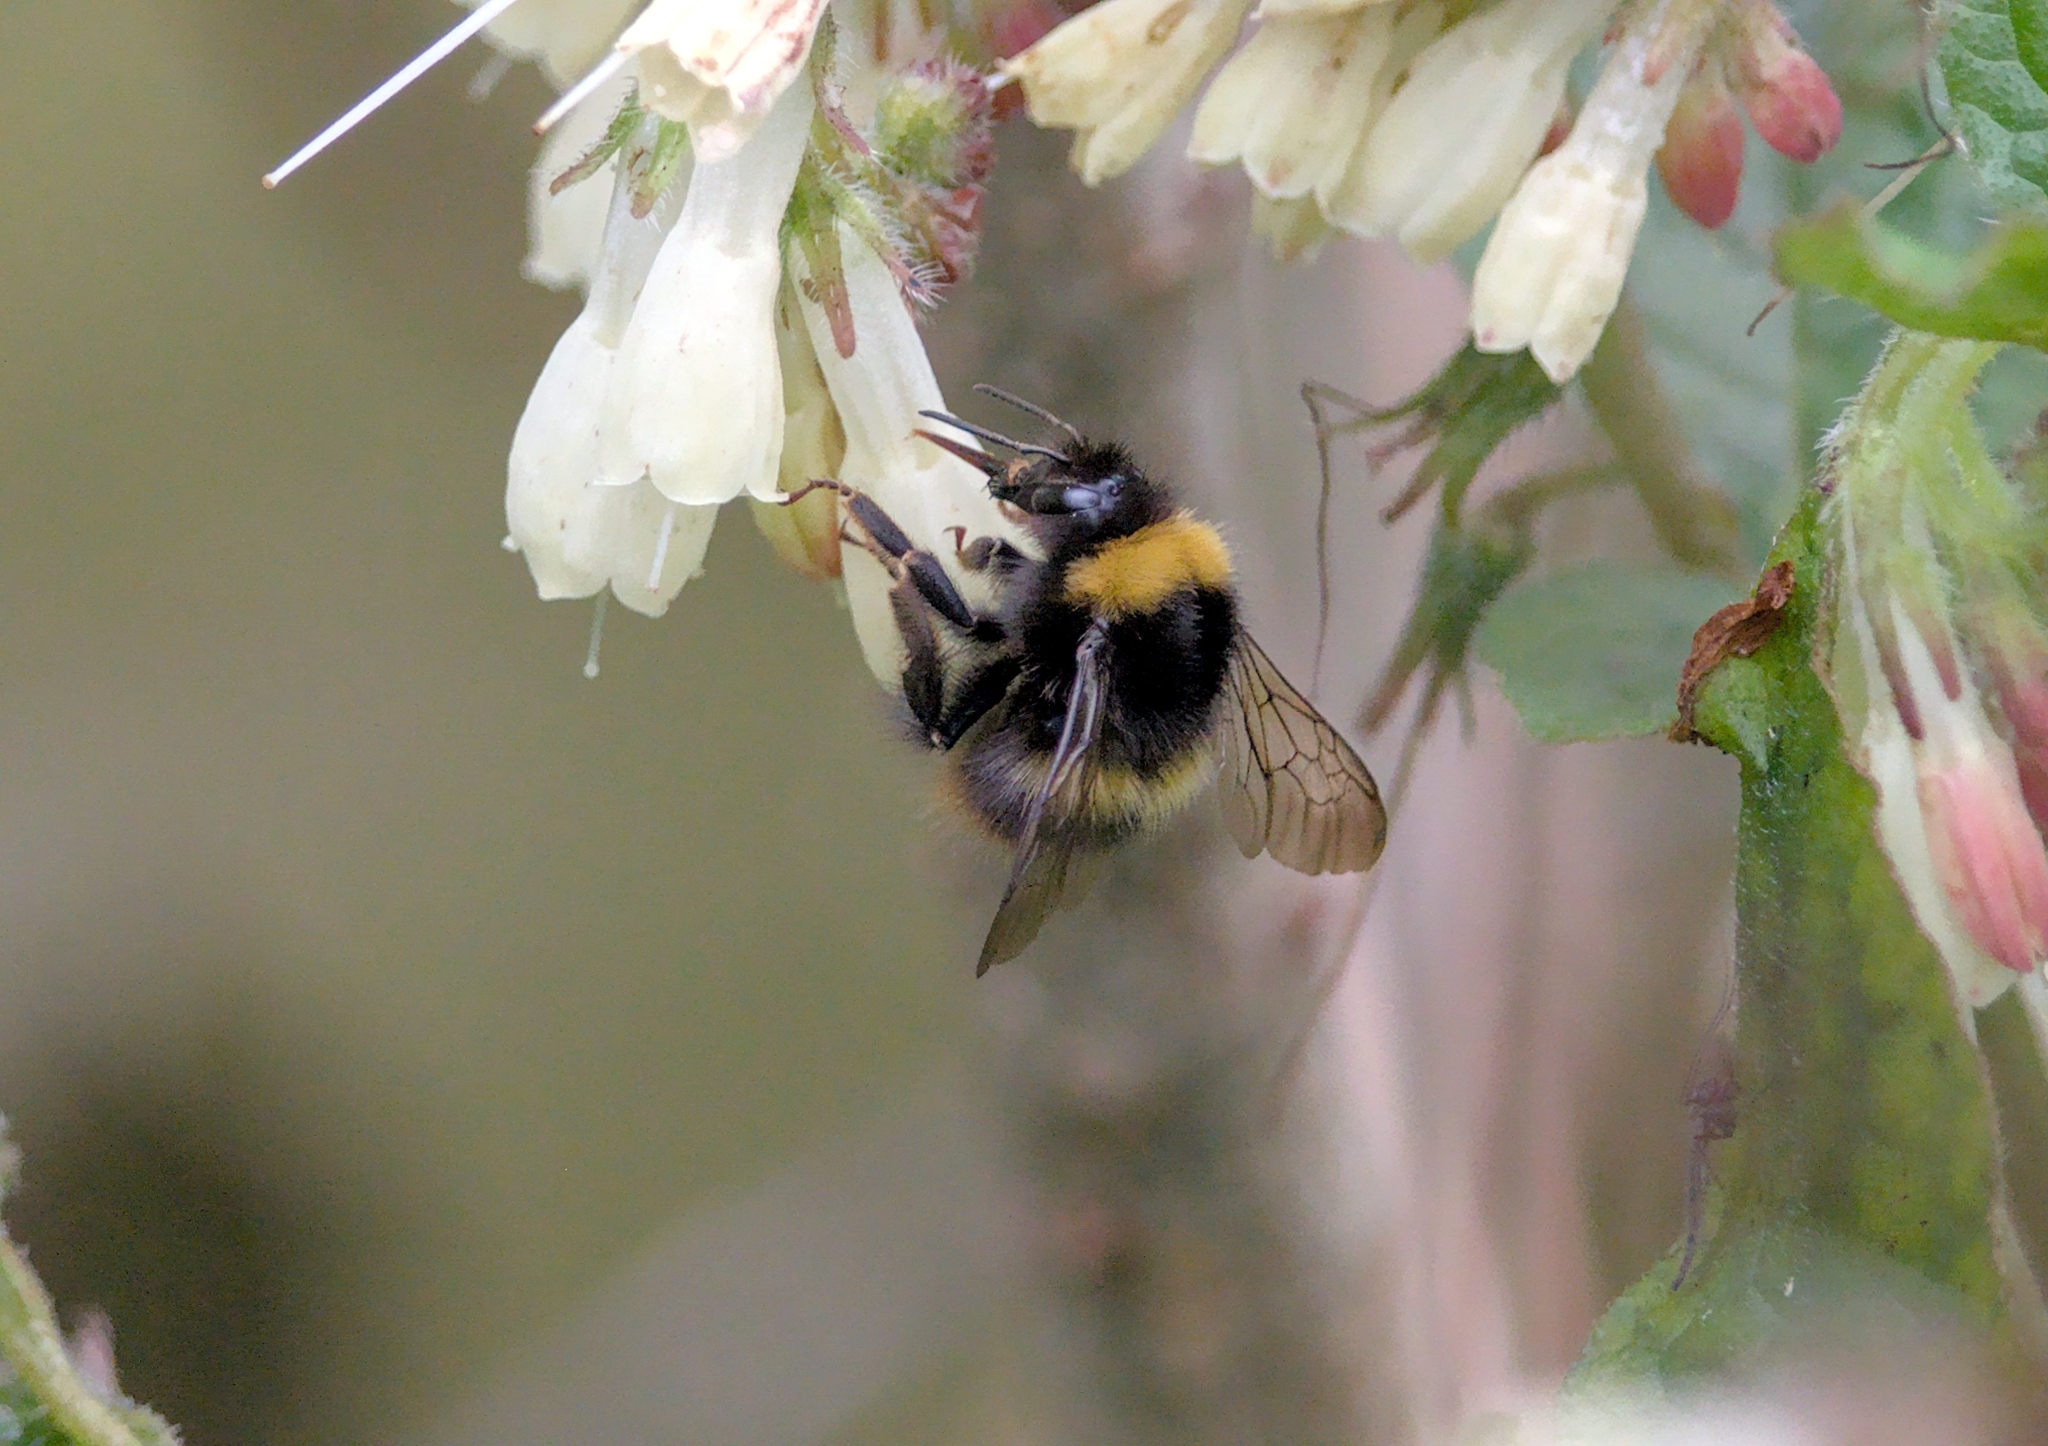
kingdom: Animalia
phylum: Arthropoda
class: Insecta
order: Hymenoptera
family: Apidae
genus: Bombus
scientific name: Bombus pratorum
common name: Early humble-bee
